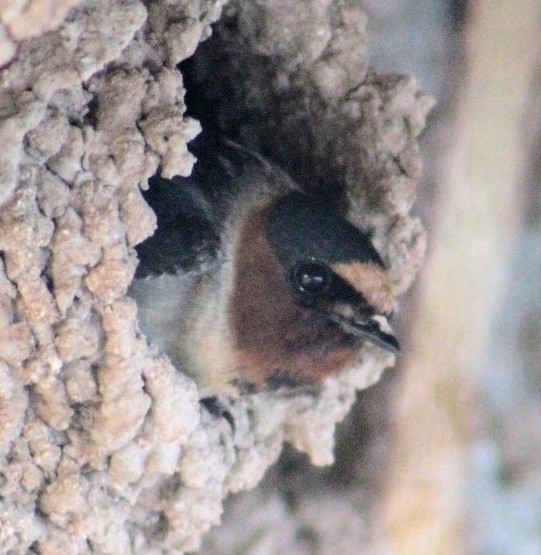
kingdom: Animalia
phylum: Chordata
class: Aves
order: Passeriformes
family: Hirundinidae
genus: Petrochelidon
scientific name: Petrochelidon pyrrhonota
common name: American cliff swallow
